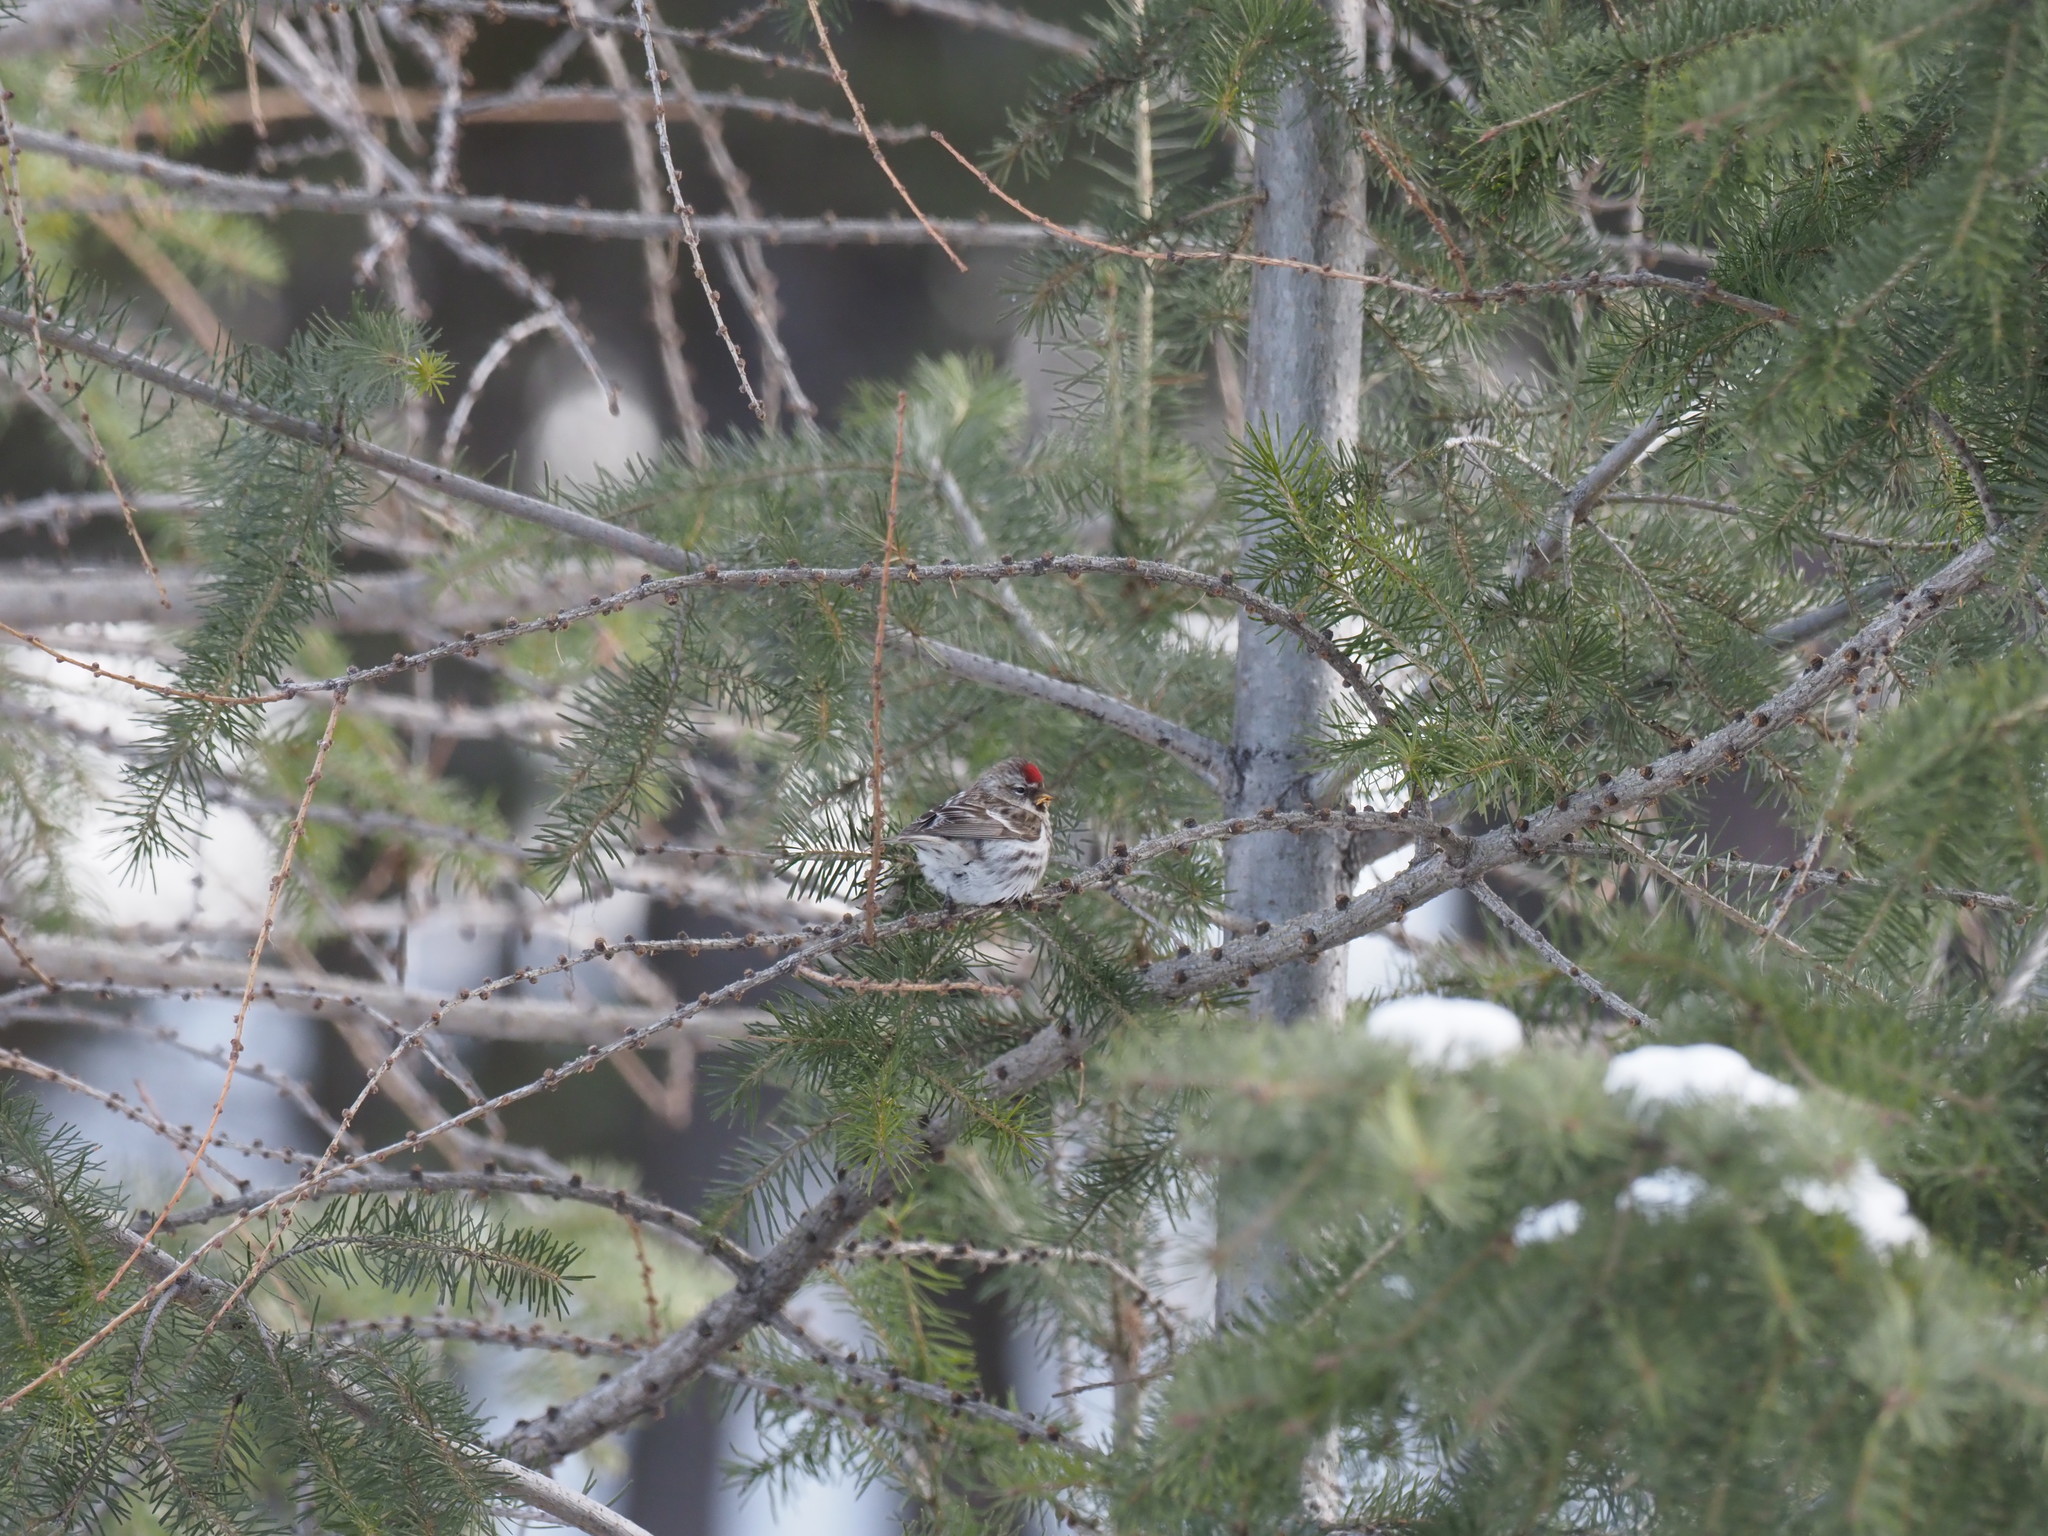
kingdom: Animalia
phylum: Chordata
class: Aves
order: Passeriformes
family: Fringillidae
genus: Acanthis
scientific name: Acanthis flammea
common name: Common redpoll
